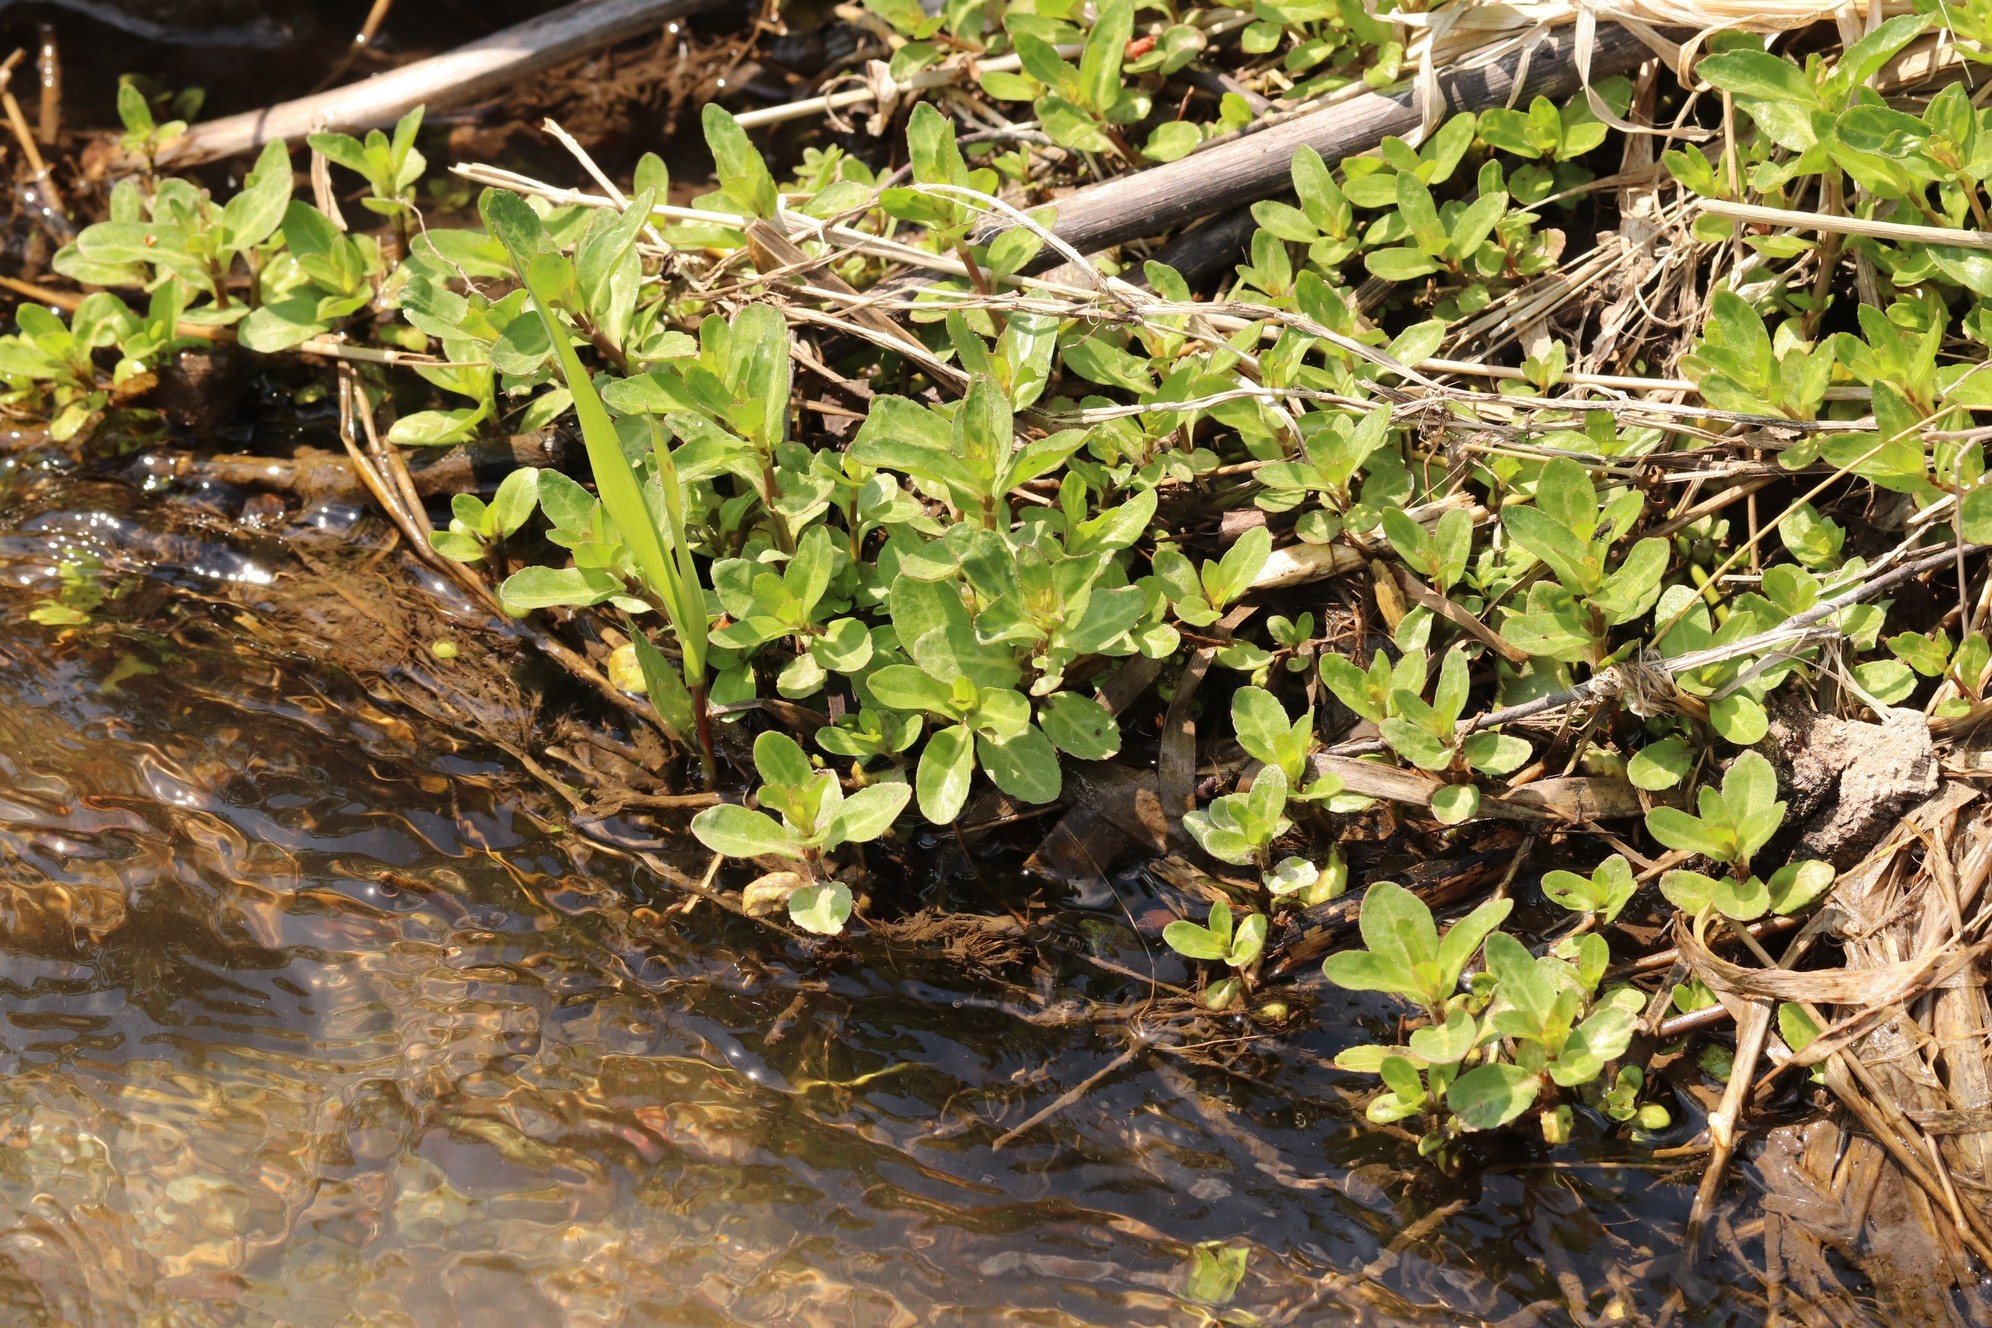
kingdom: Plantae
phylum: Tracheophyta
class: Magnoliopsida
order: Lamiales
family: Plantaginaceae
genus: Veronica
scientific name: Veronica beccabunga
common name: Brooklime
